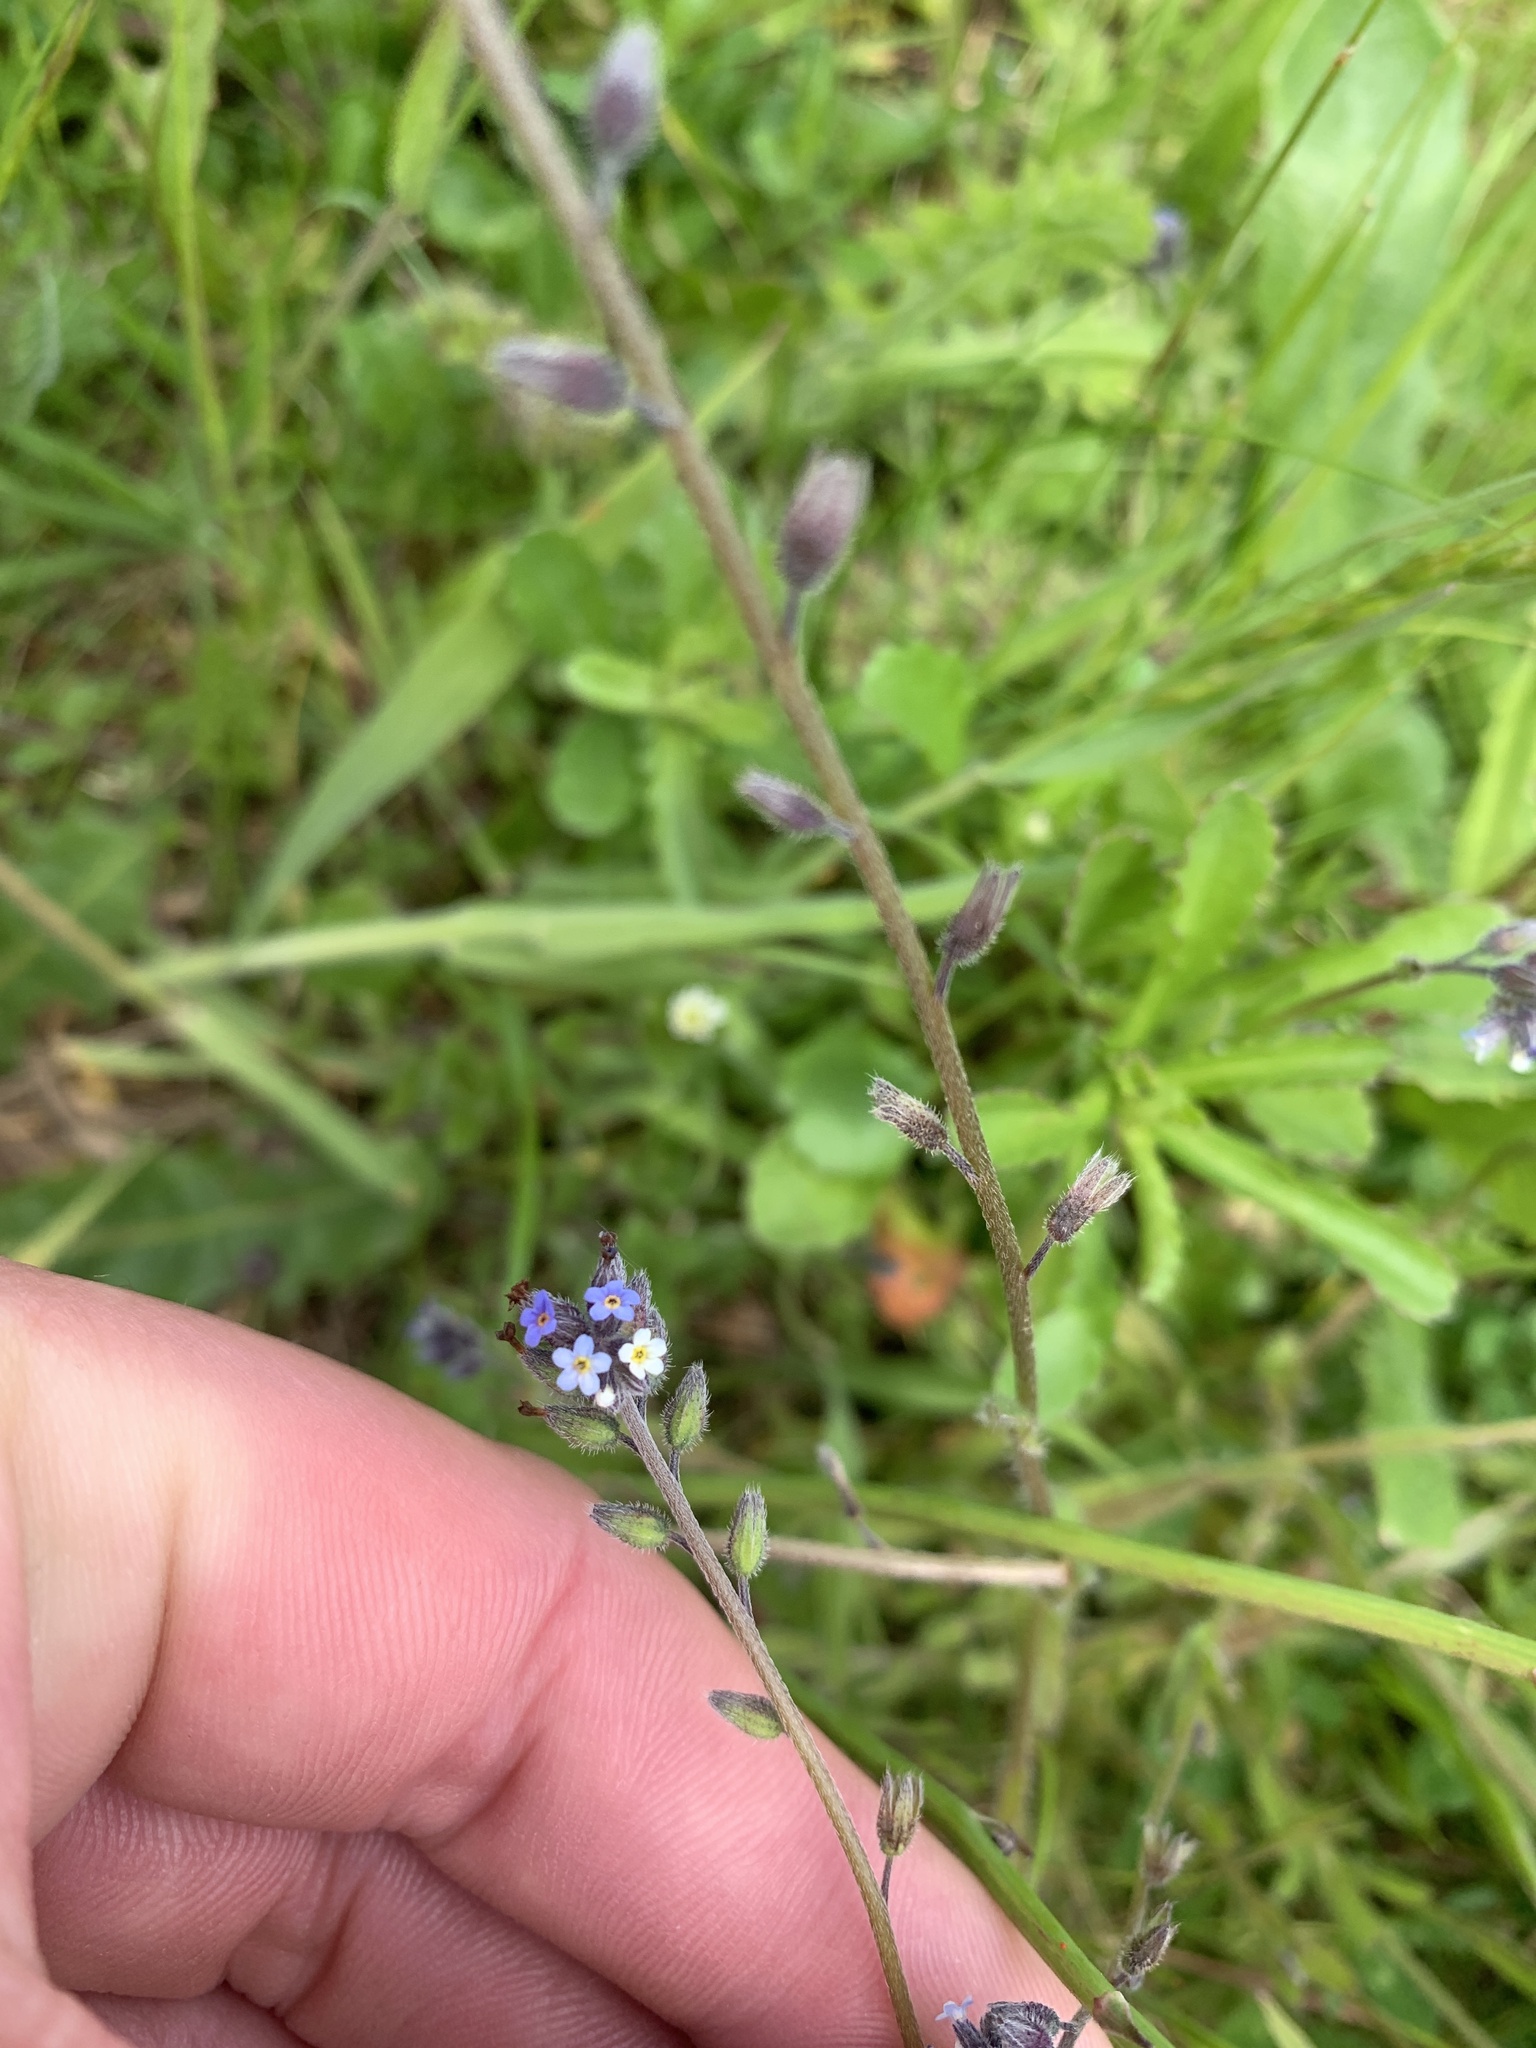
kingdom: Plantae
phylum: Tracheophyta
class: Magnoliopsida
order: Boraginales
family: Boraginaceae
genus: Myosotis
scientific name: Myosotis ramosissima
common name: Early forget-me-not
